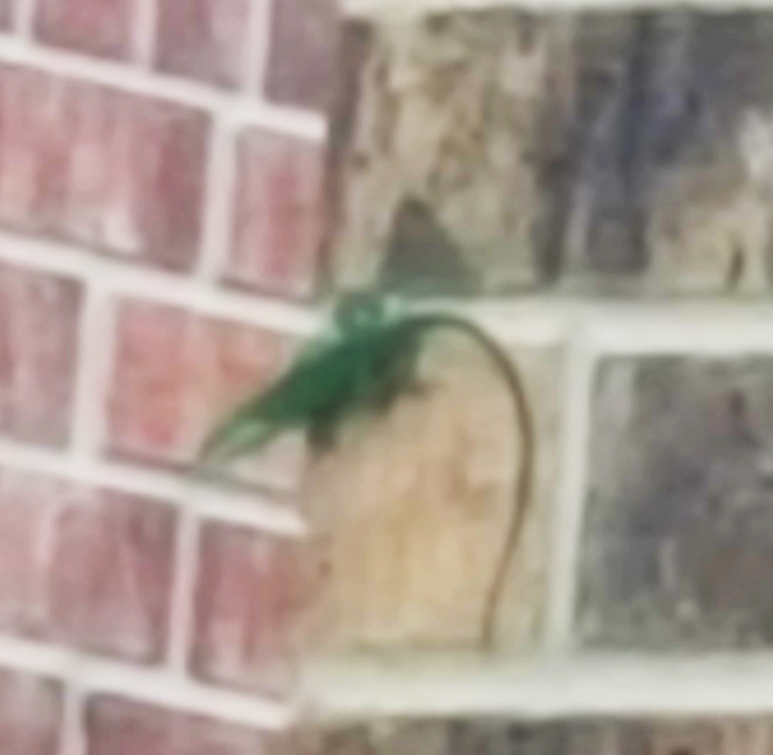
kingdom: Animalia
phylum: Chordata
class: Squamata
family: Dactyloidae
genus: Anolis
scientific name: Anolis carolinensis
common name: Green anole
